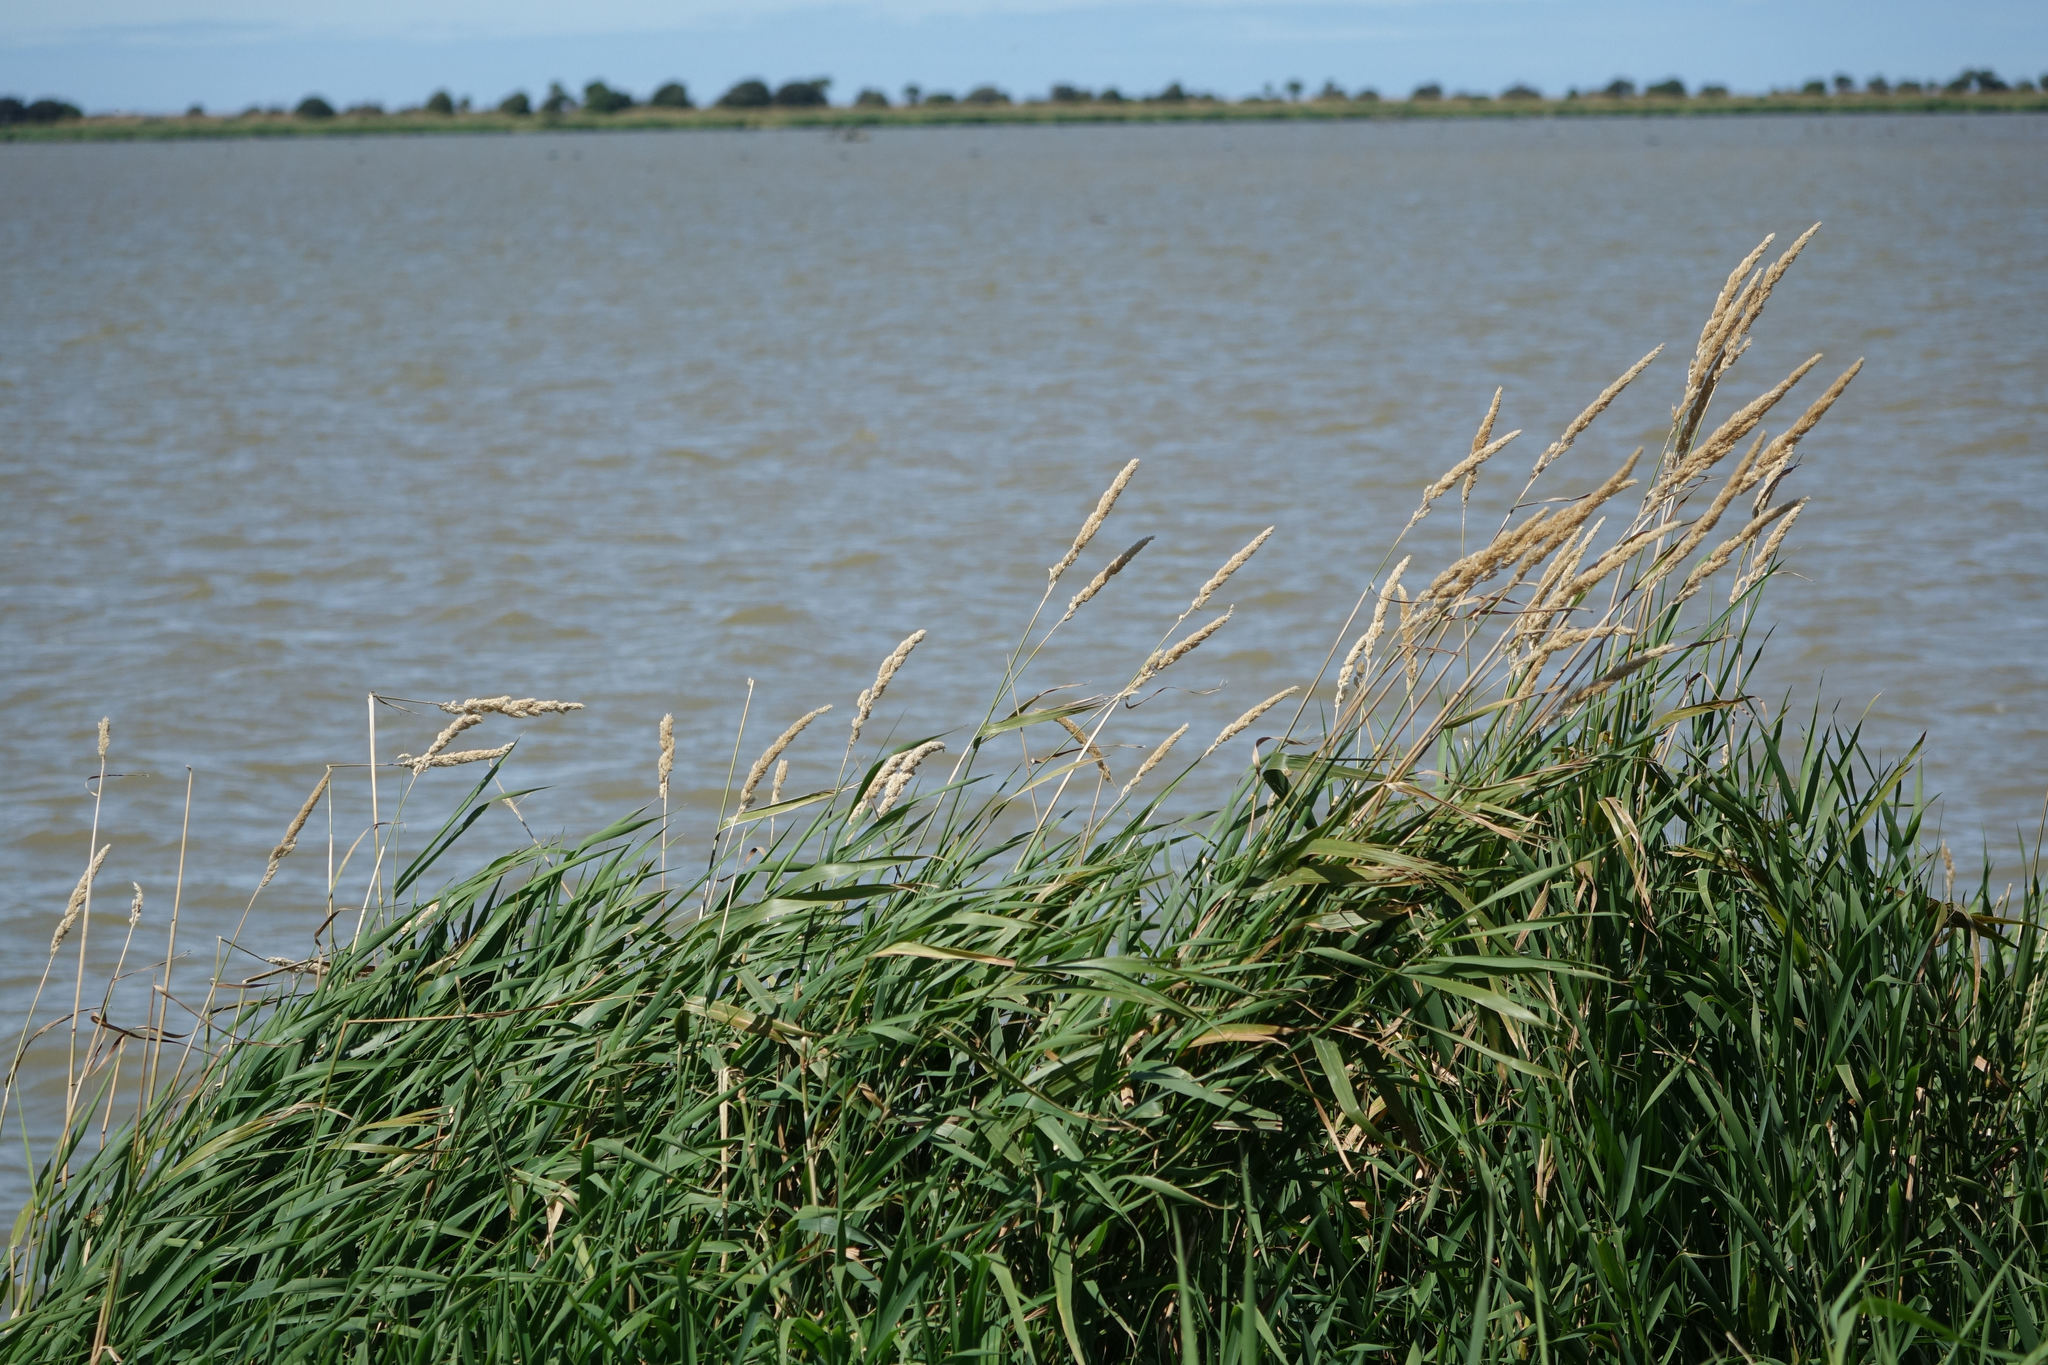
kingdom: Plantae
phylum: Tracheophyta
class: Liliopsida
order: Poales
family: Poaceae
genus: Phalaris
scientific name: Phalaris arundinacea
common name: Reed canary-grass
